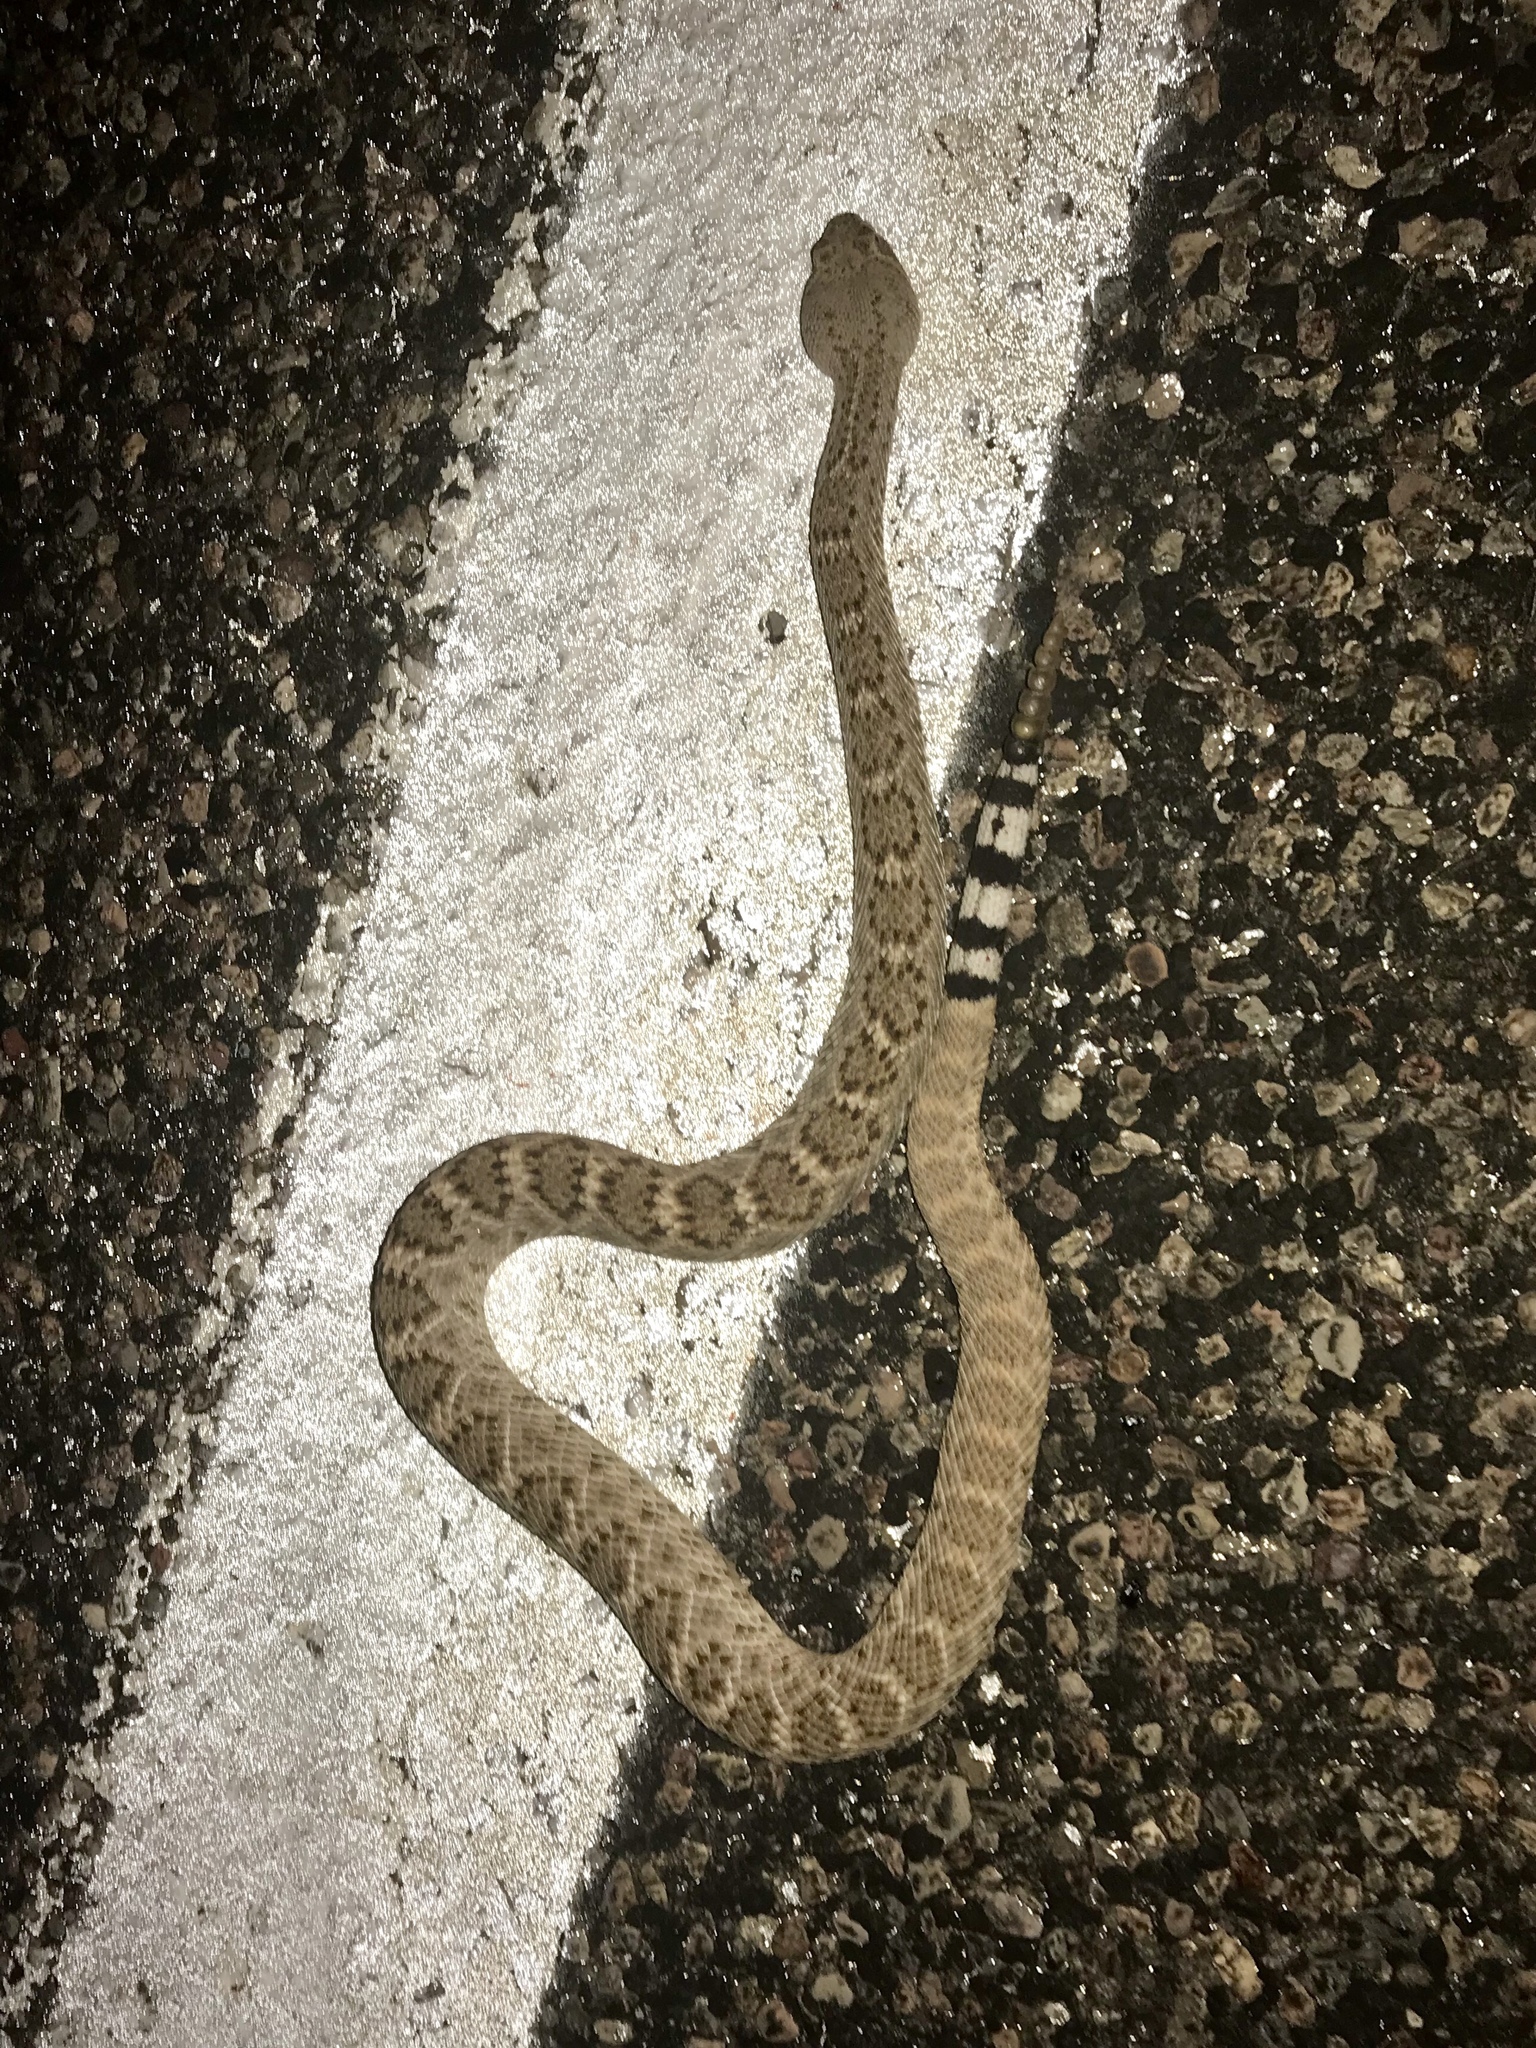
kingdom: Animalia
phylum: Chordata
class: Squamata
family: Viperidae
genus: Crotalus
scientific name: Crotalus atrox
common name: Western diamond-backed rattlesnake
